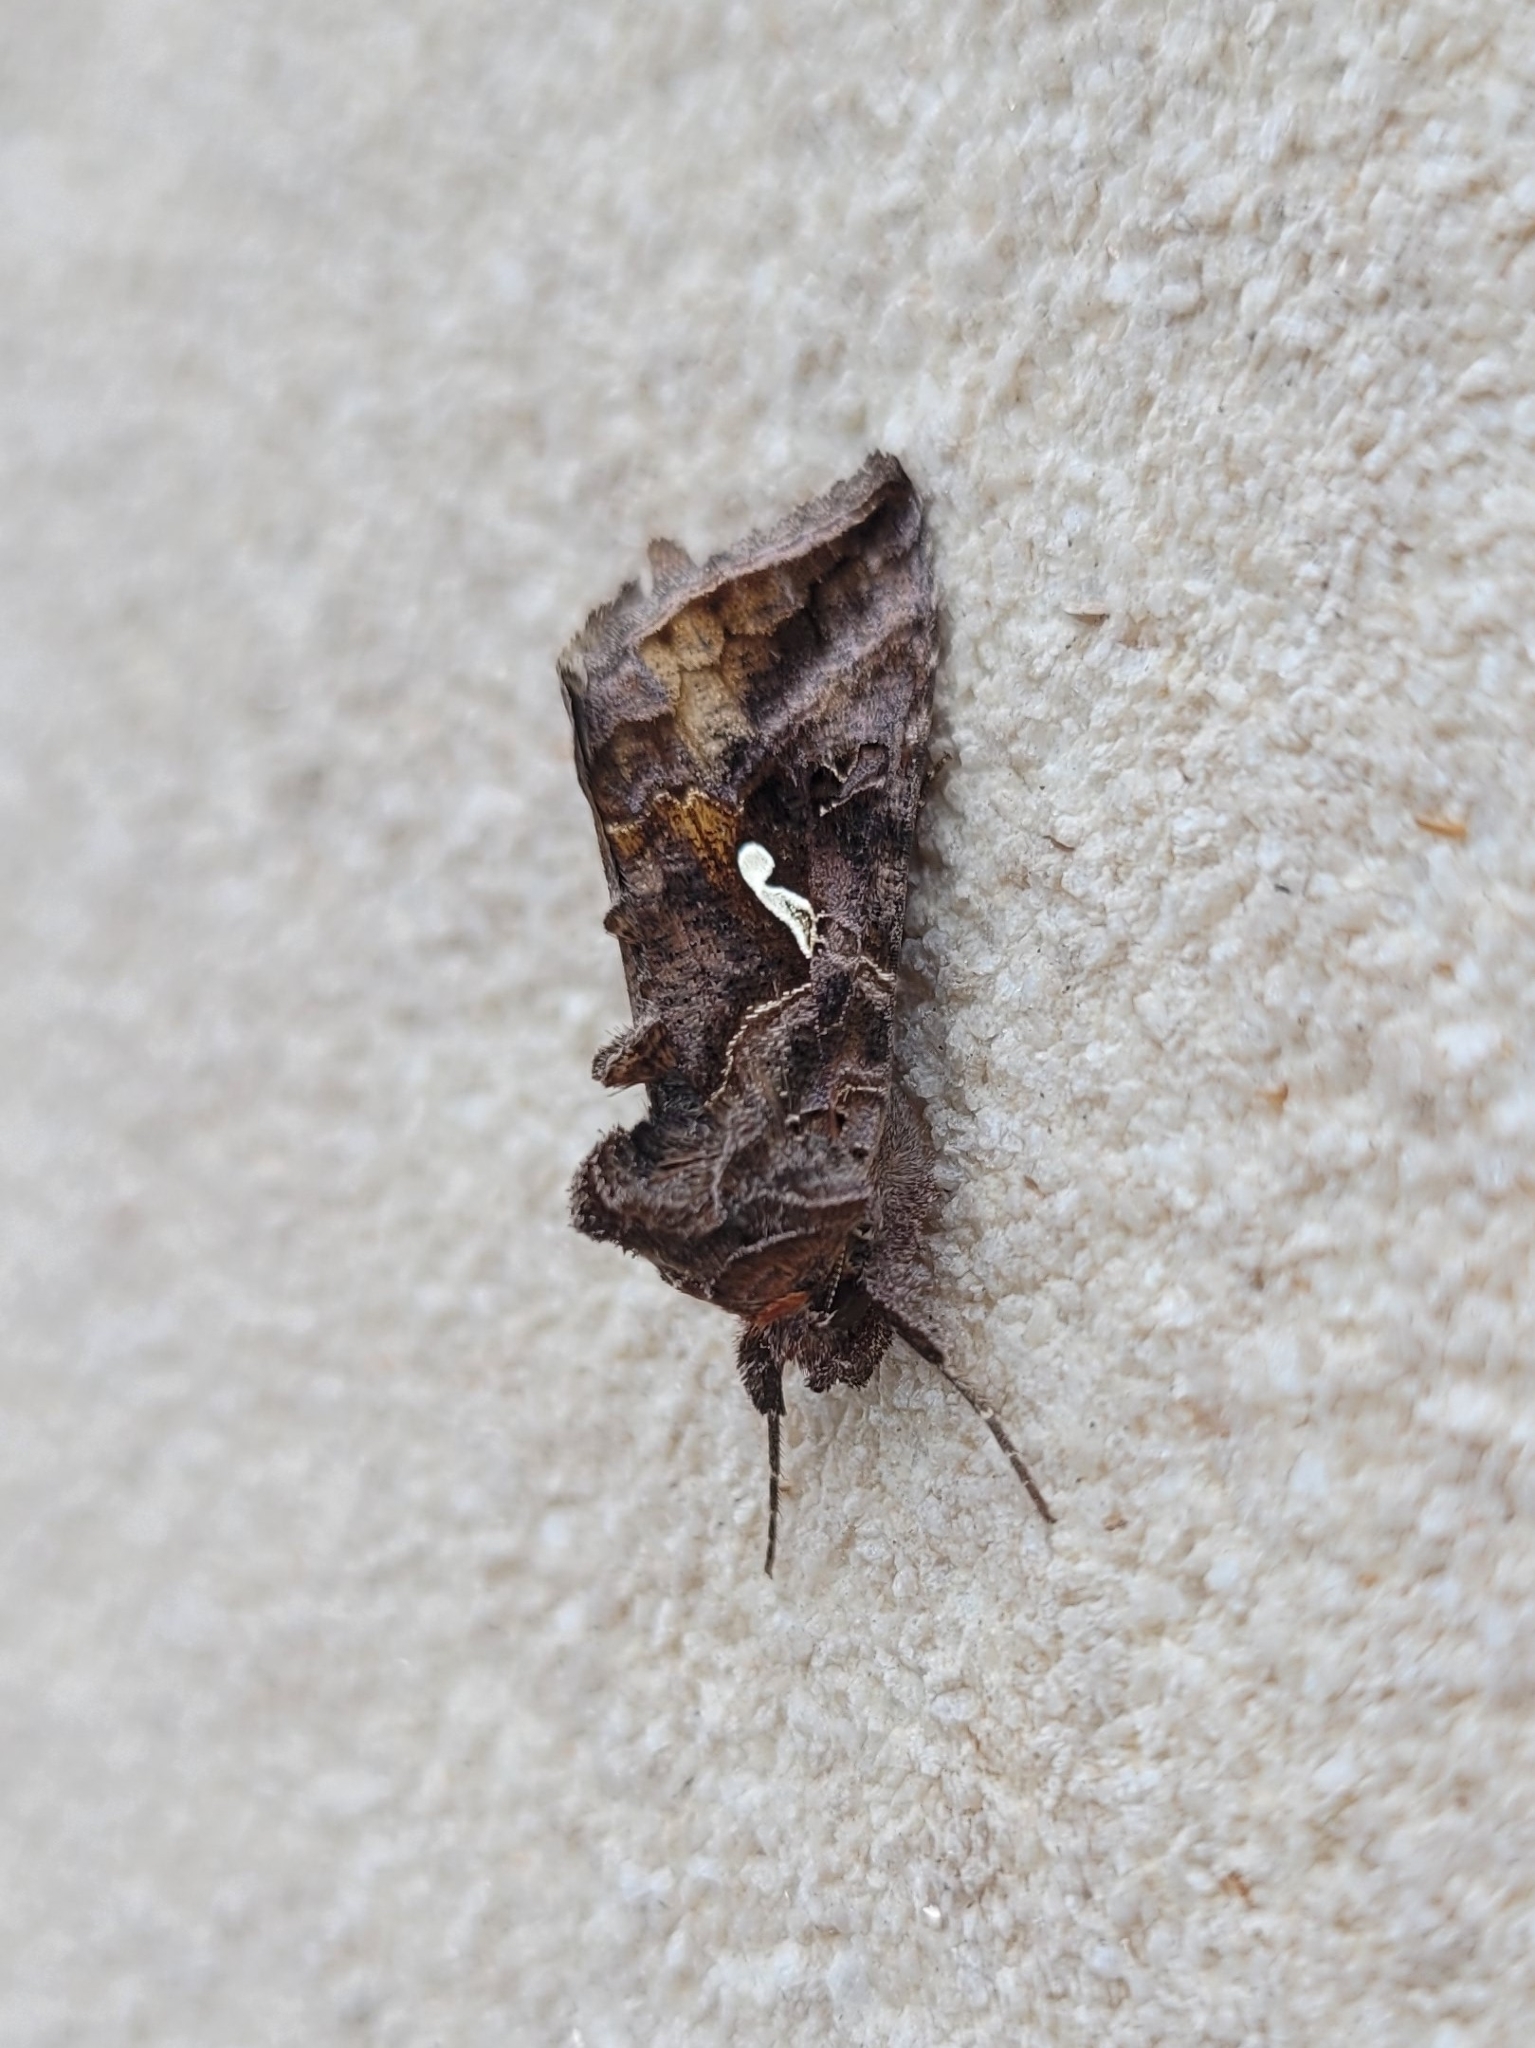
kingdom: Animalia
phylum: Arthropoda
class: Insecta
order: Lepidoptera
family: Noctuidae
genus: Autographa
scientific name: Autographa precationis
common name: Common looper moth
